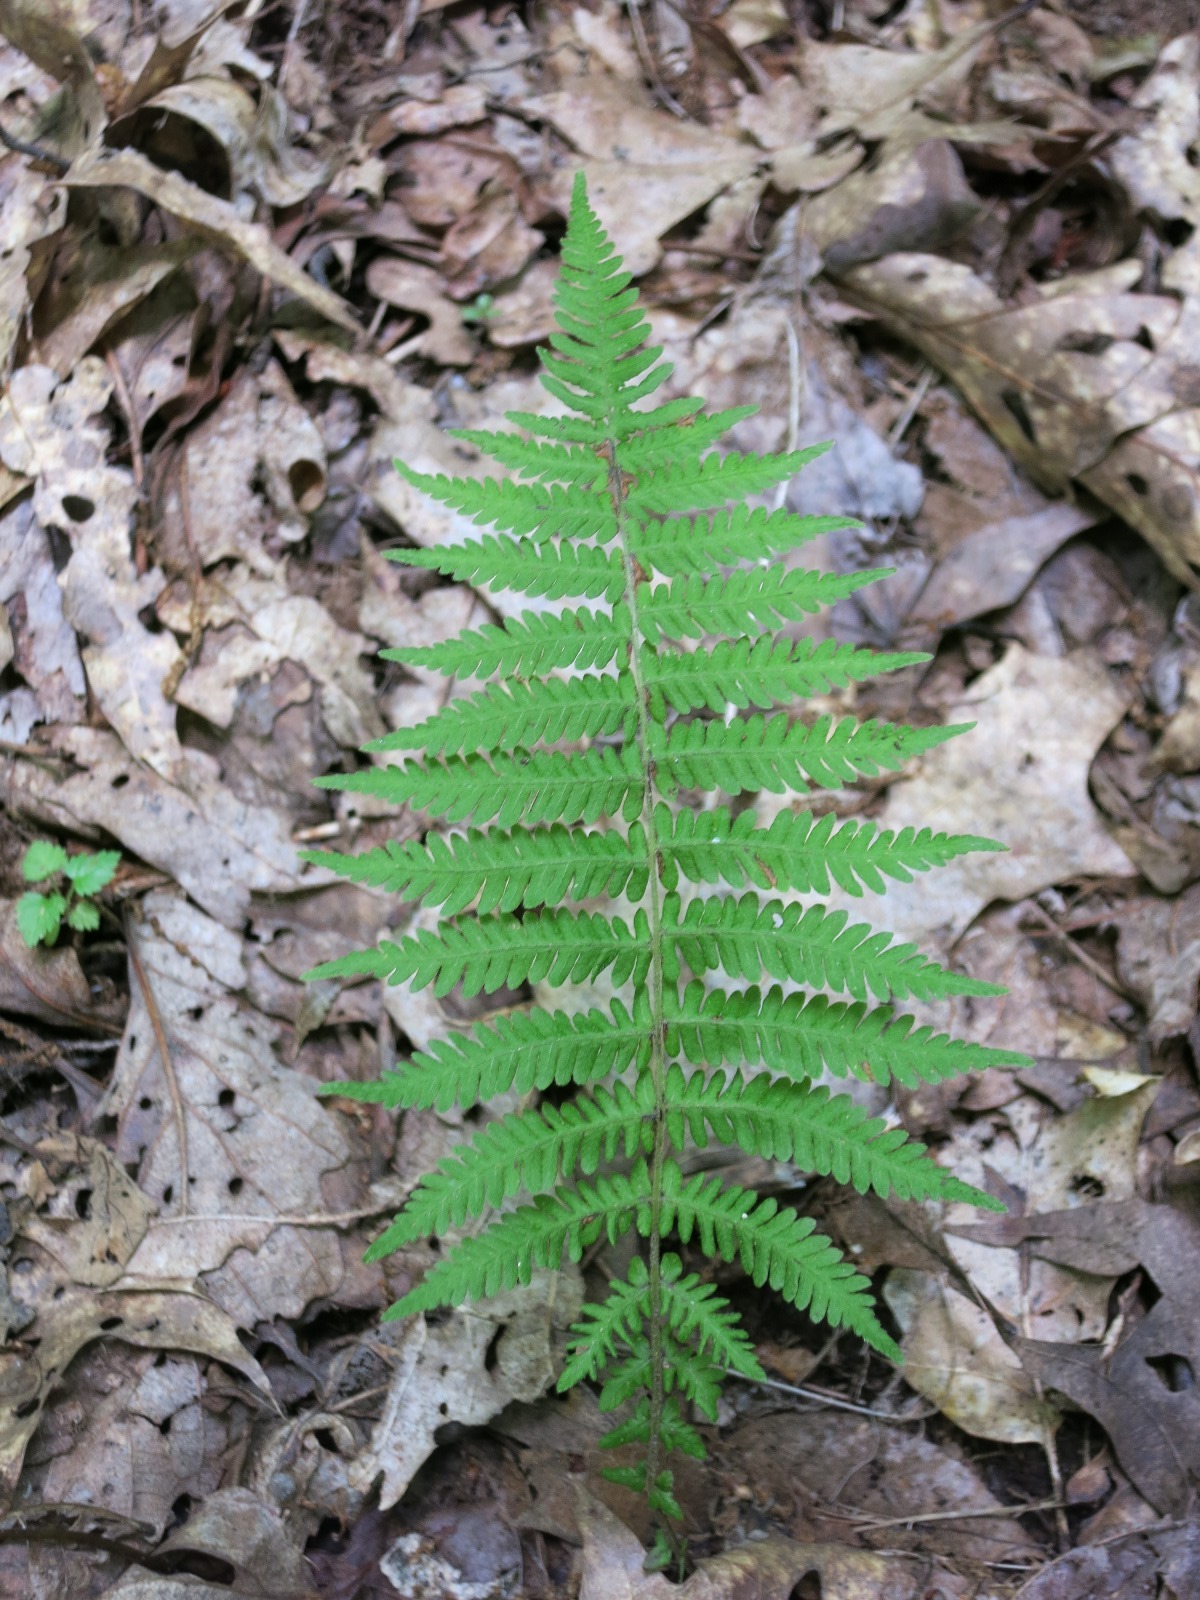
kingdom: Plantae
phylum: Tracheophyta
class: Polypodiopsida
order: Polypodiales
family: Thelypteridaceae
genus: Amauropelta
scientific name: Amauropelta noveboracensis
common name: New york fern
